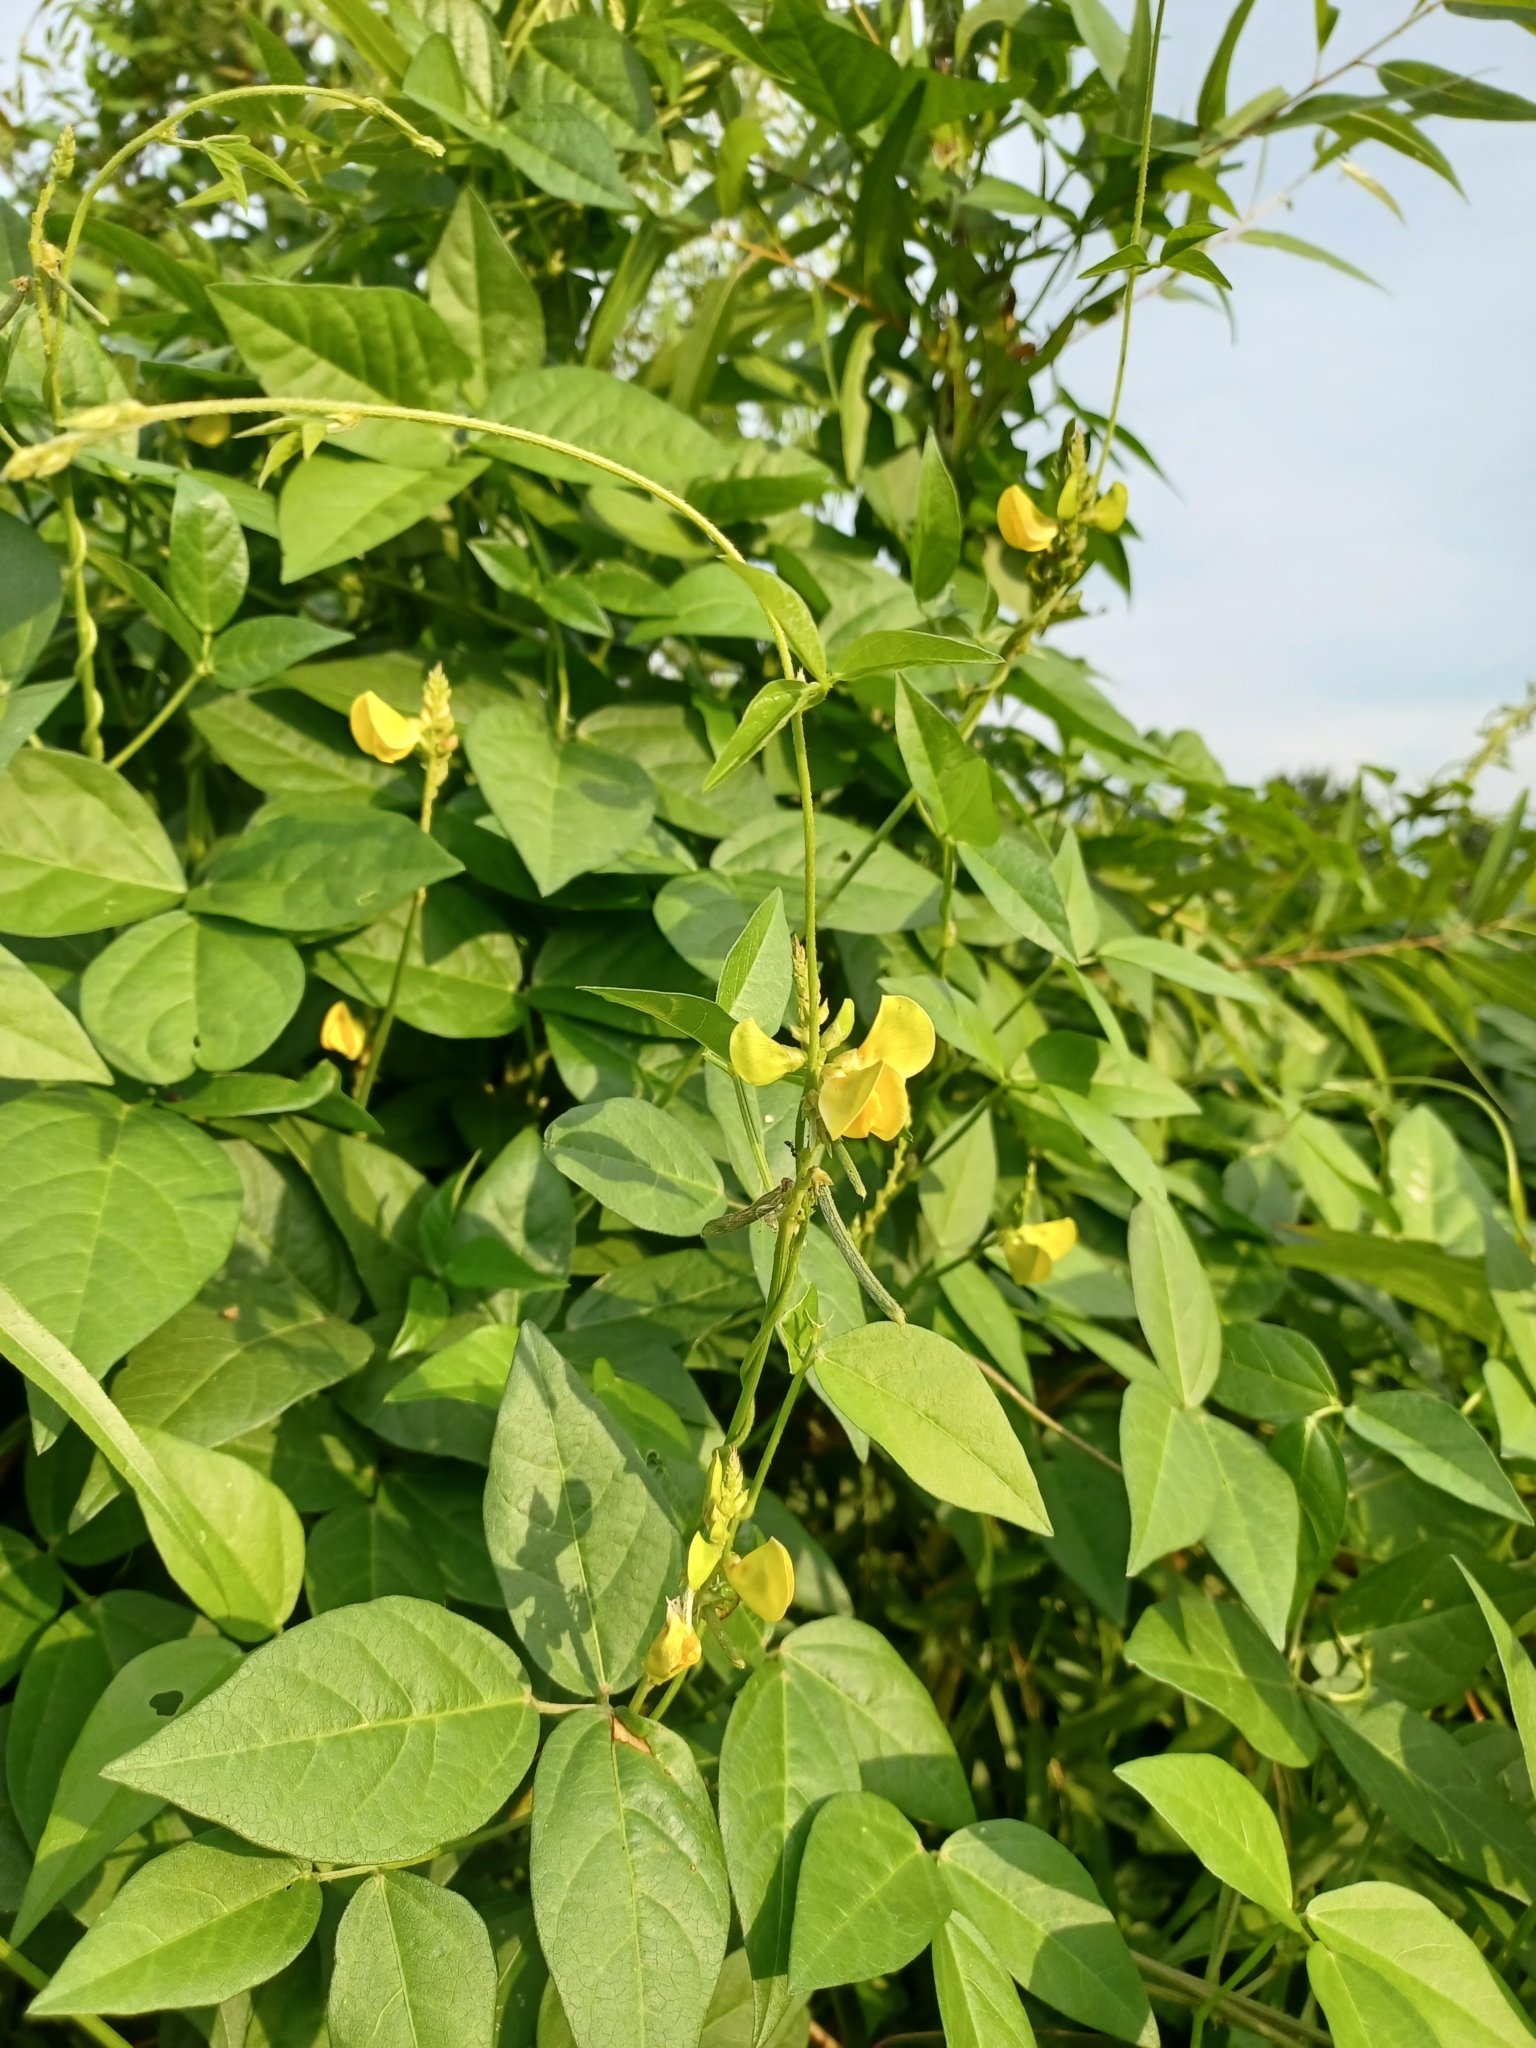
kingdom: Plantae
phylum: Tracheophyta
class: Magnoliopsida
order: Fabales
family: Fabaceae
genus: Vigna
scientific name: Vigna luteola
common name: Hairypod cowpea
